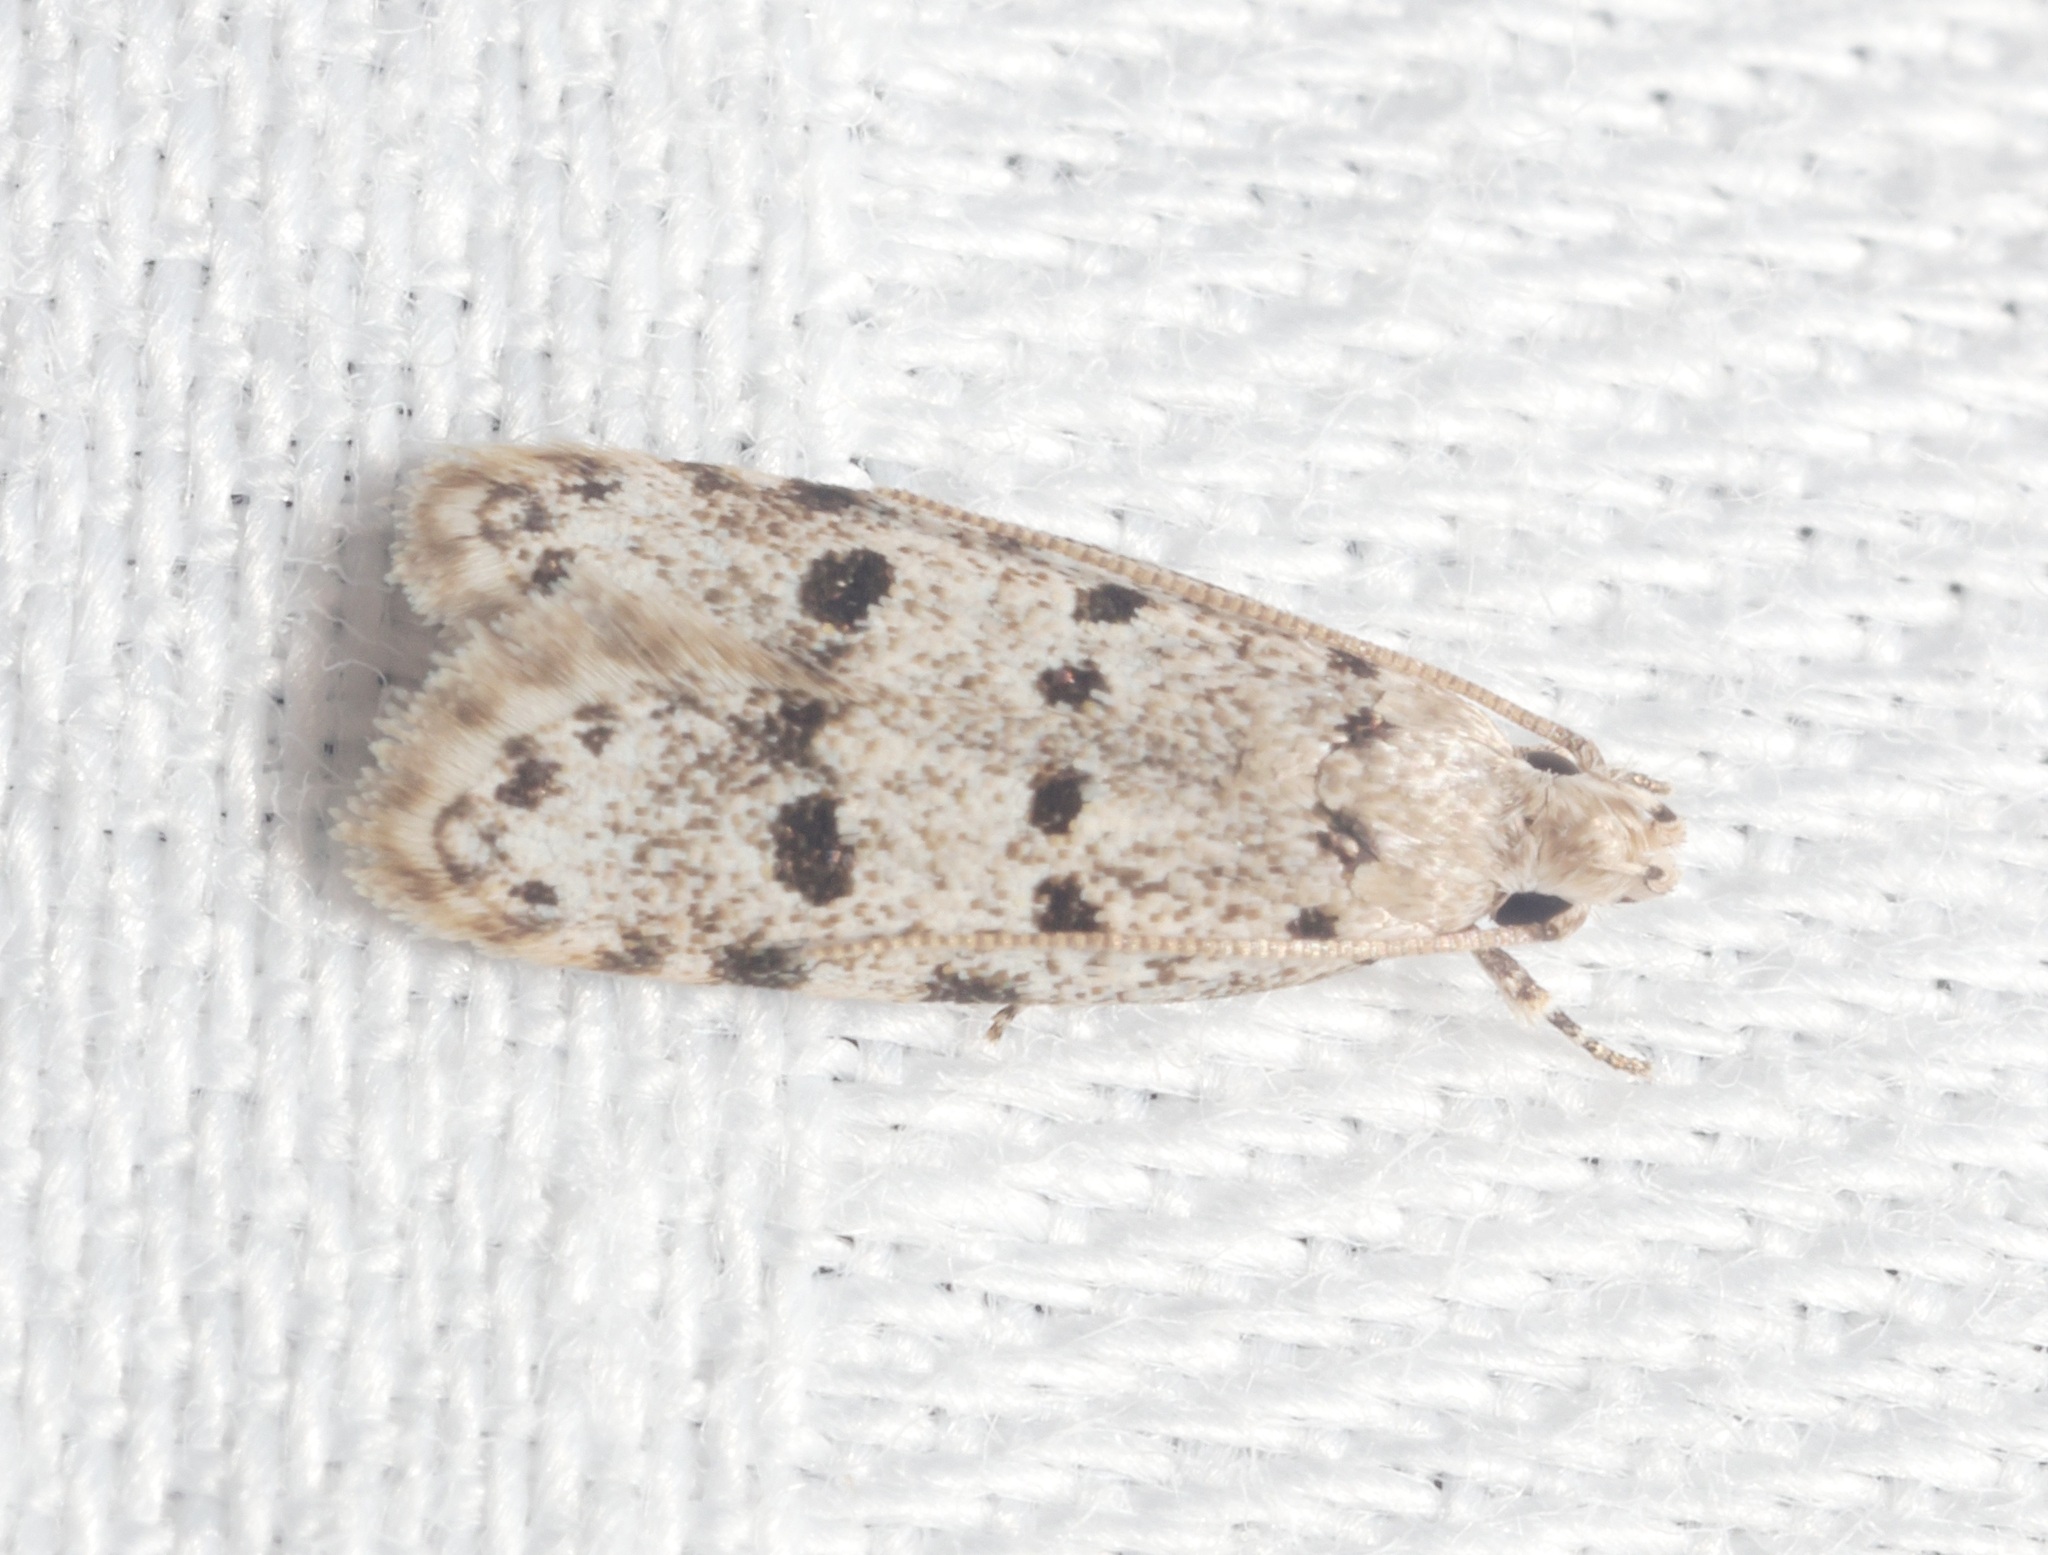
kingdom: Animalia
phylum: Arthropoda
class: Insecta
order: Lepidoptera
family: Autostichidae
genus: Autosticha
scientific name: Autosticha calceata
